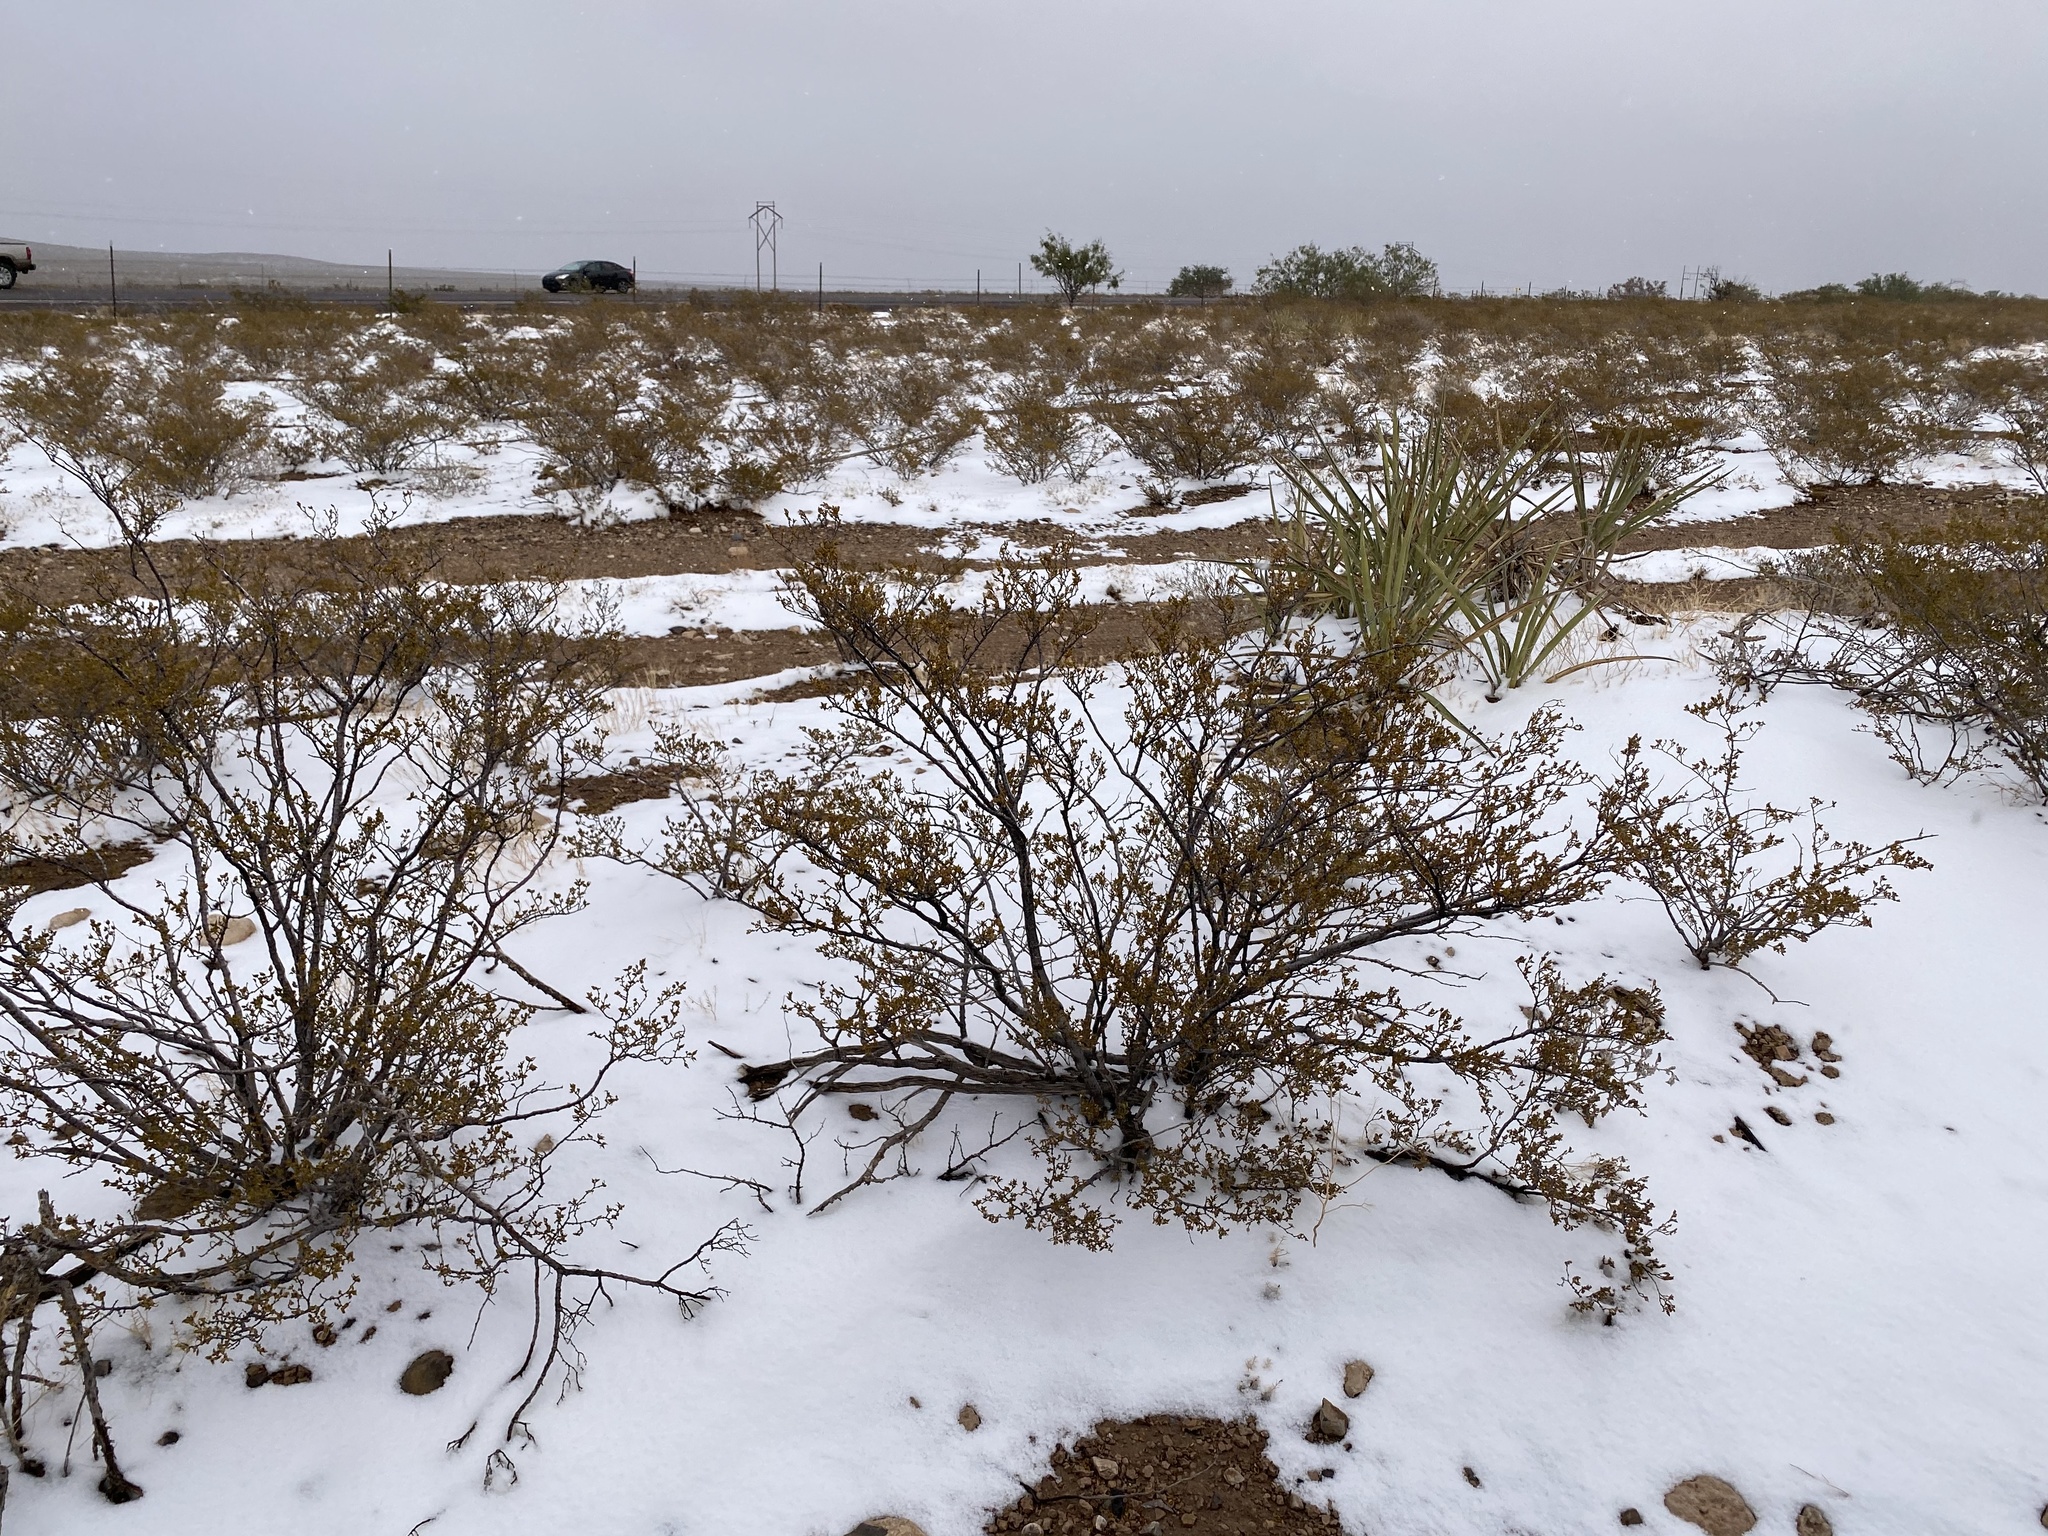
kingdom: Plantae
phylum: Tracheophyta
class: Magnoliopsida
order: Zygophyllales
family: Zygophyllaceae
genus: Larrea
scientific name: Larrea tridentata
